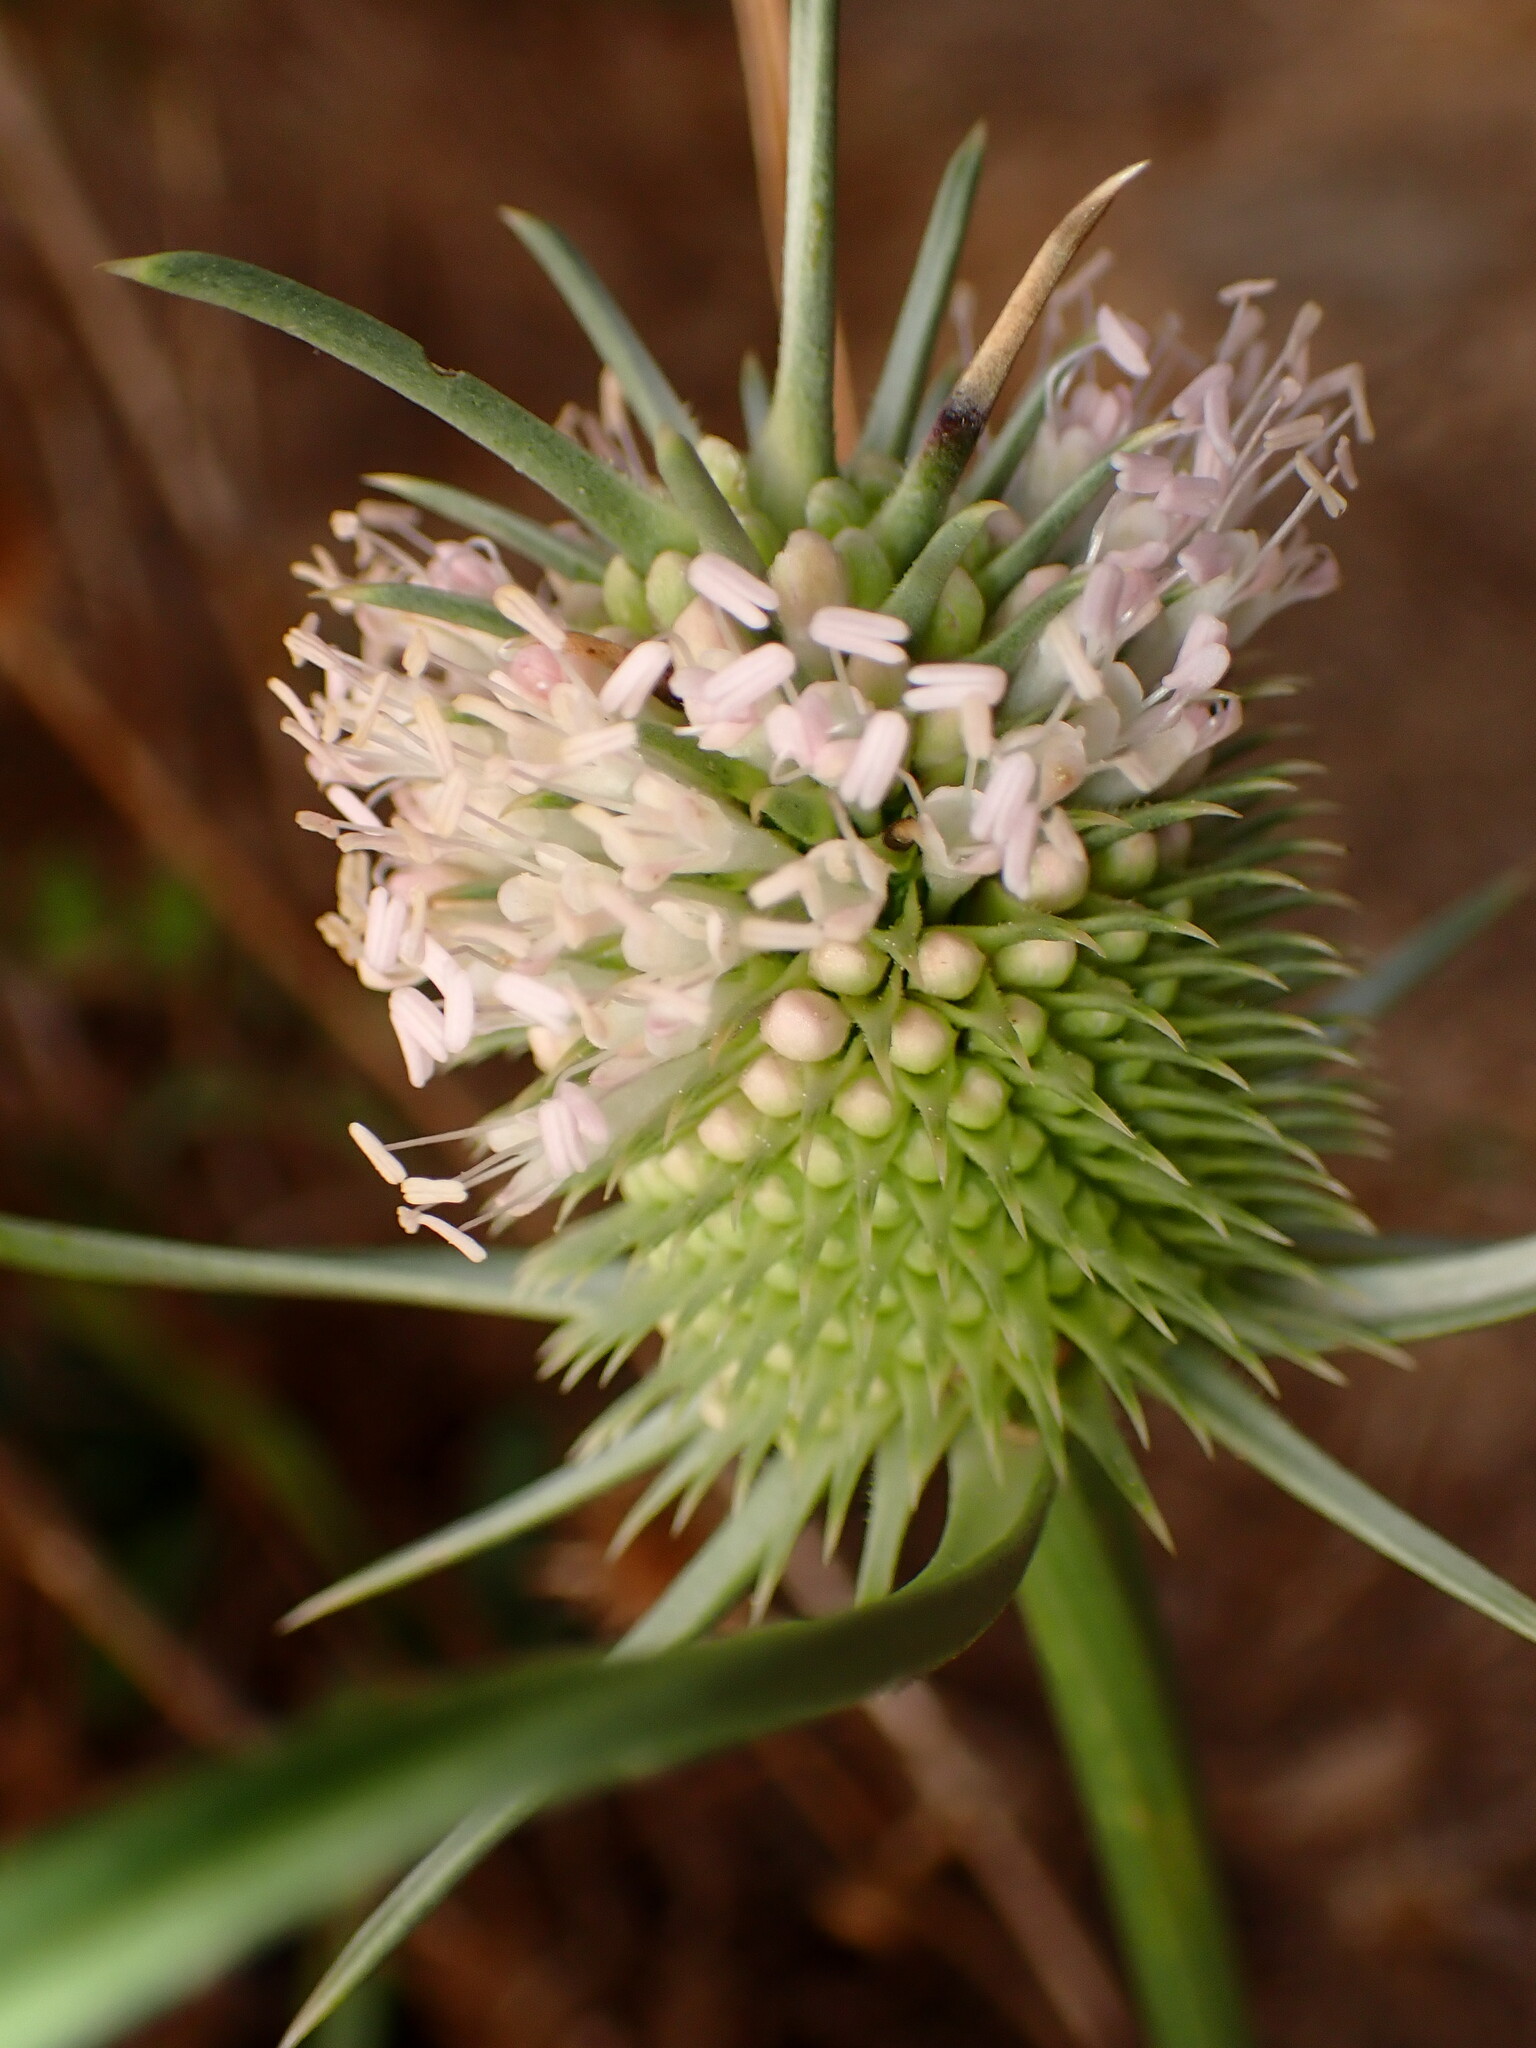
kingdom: Plantae
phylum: Tracheophyta
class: Magnoliopsida
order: Dipsacales
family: Caprifoliaceae
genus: Dipsacus
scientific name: Dipsacus sativus
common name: Fuller's teasel
